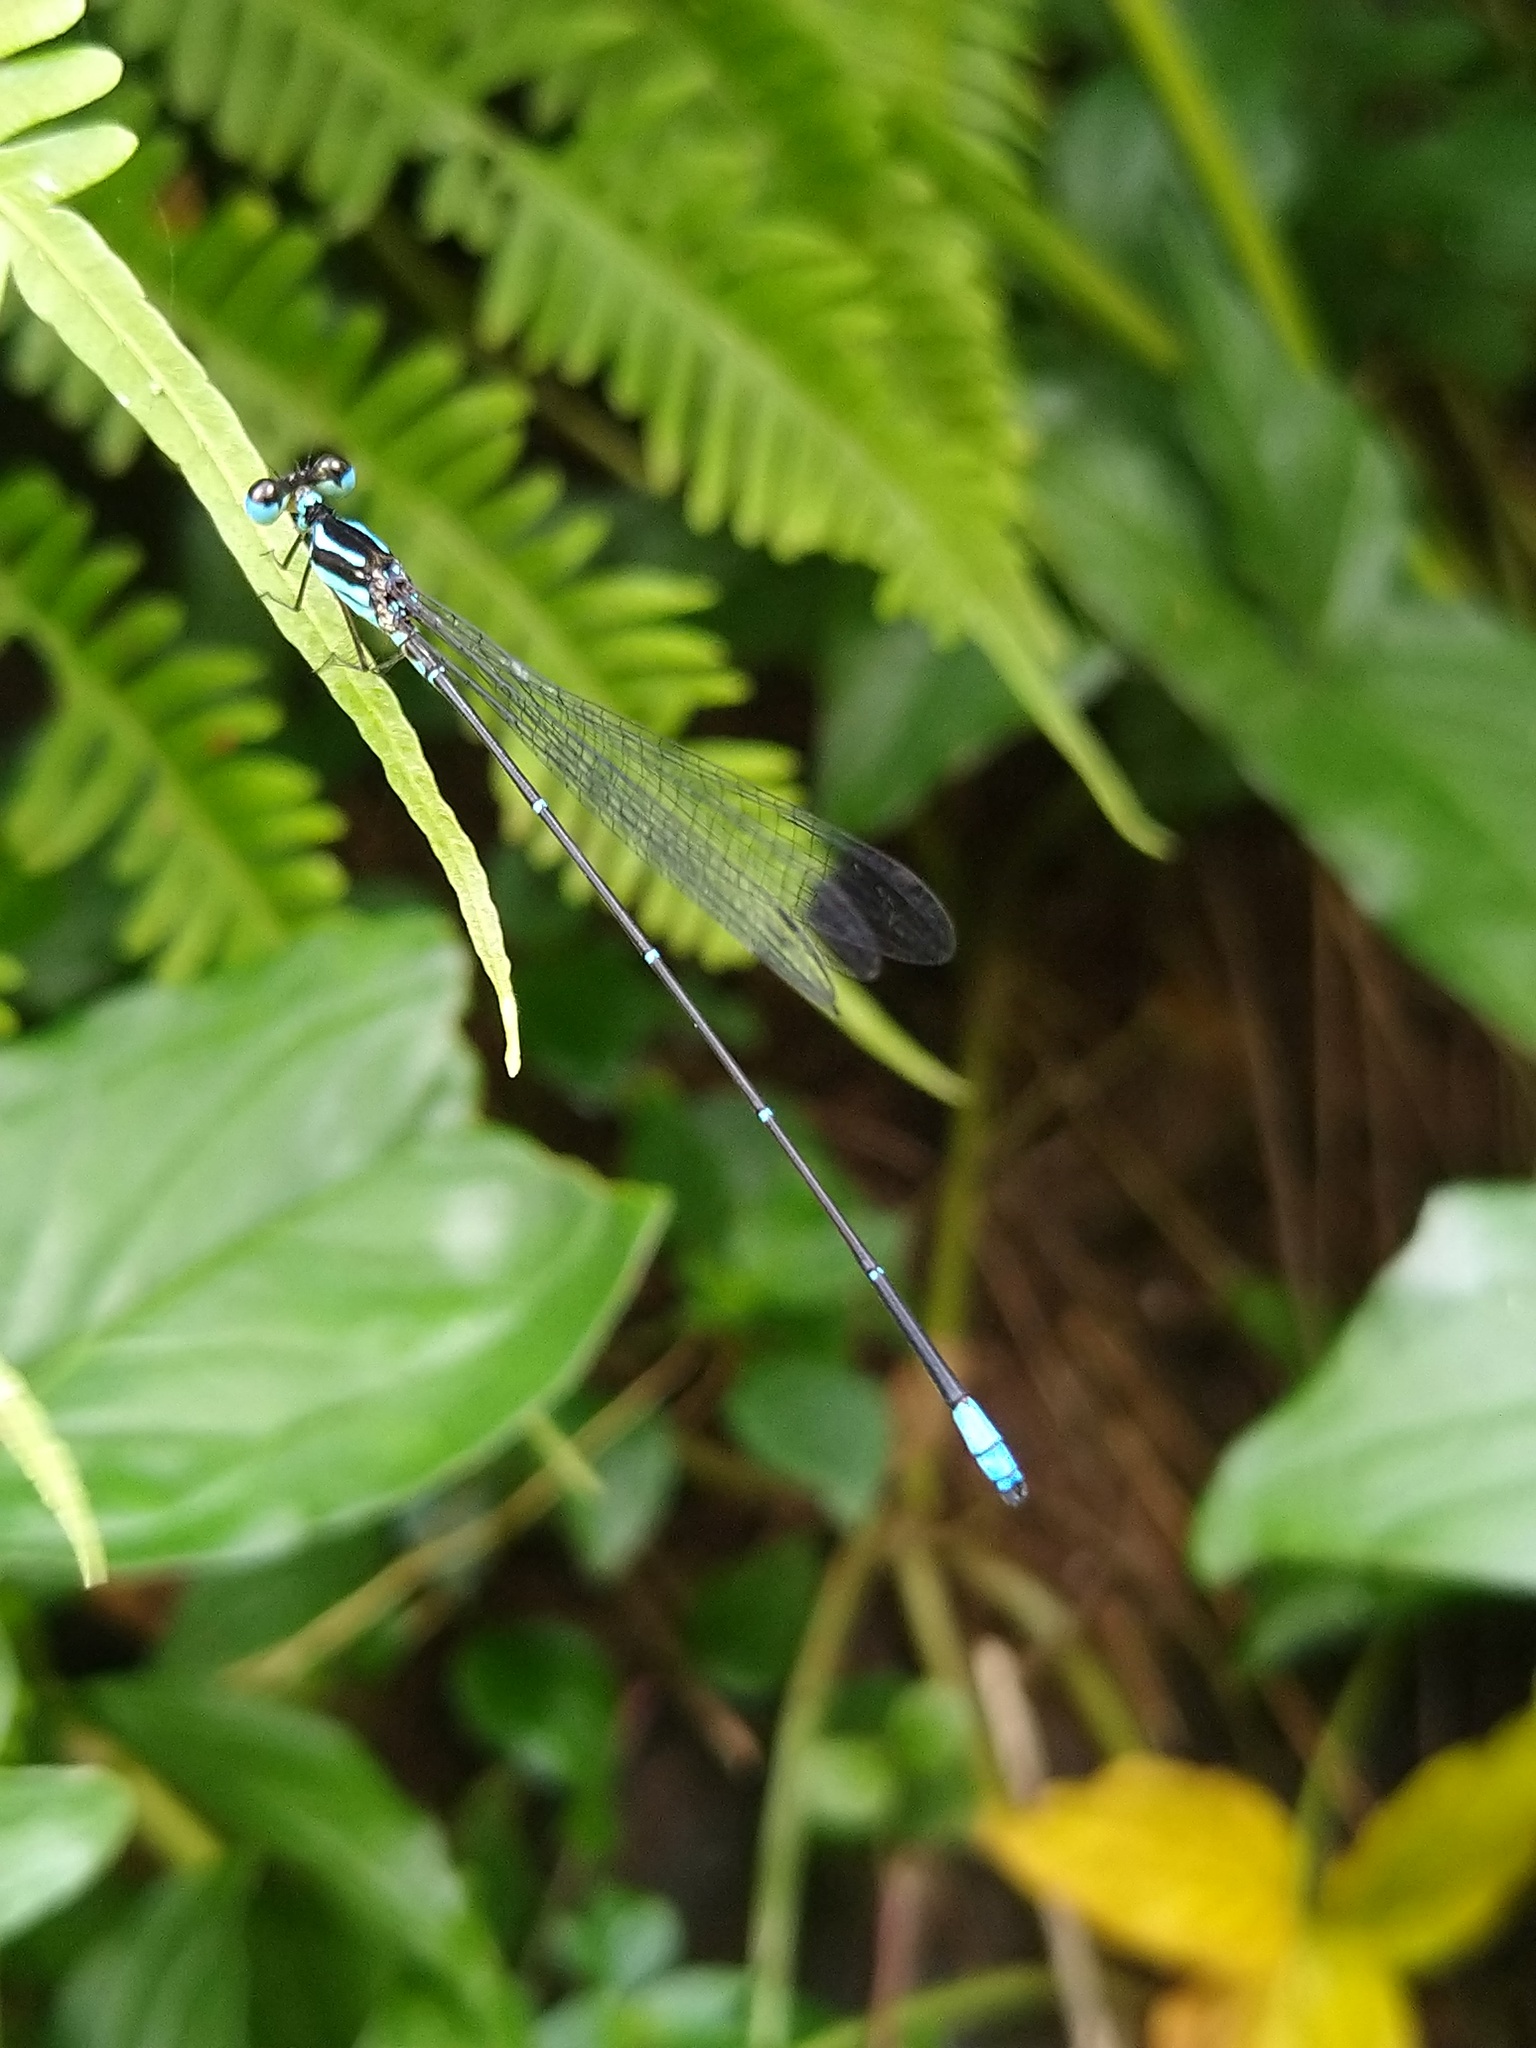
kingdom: Animalia
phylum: Arthropoda
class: Insecta
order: Odonata
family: Platycnemididae
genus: Caconeura
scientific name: Caconeura risi
